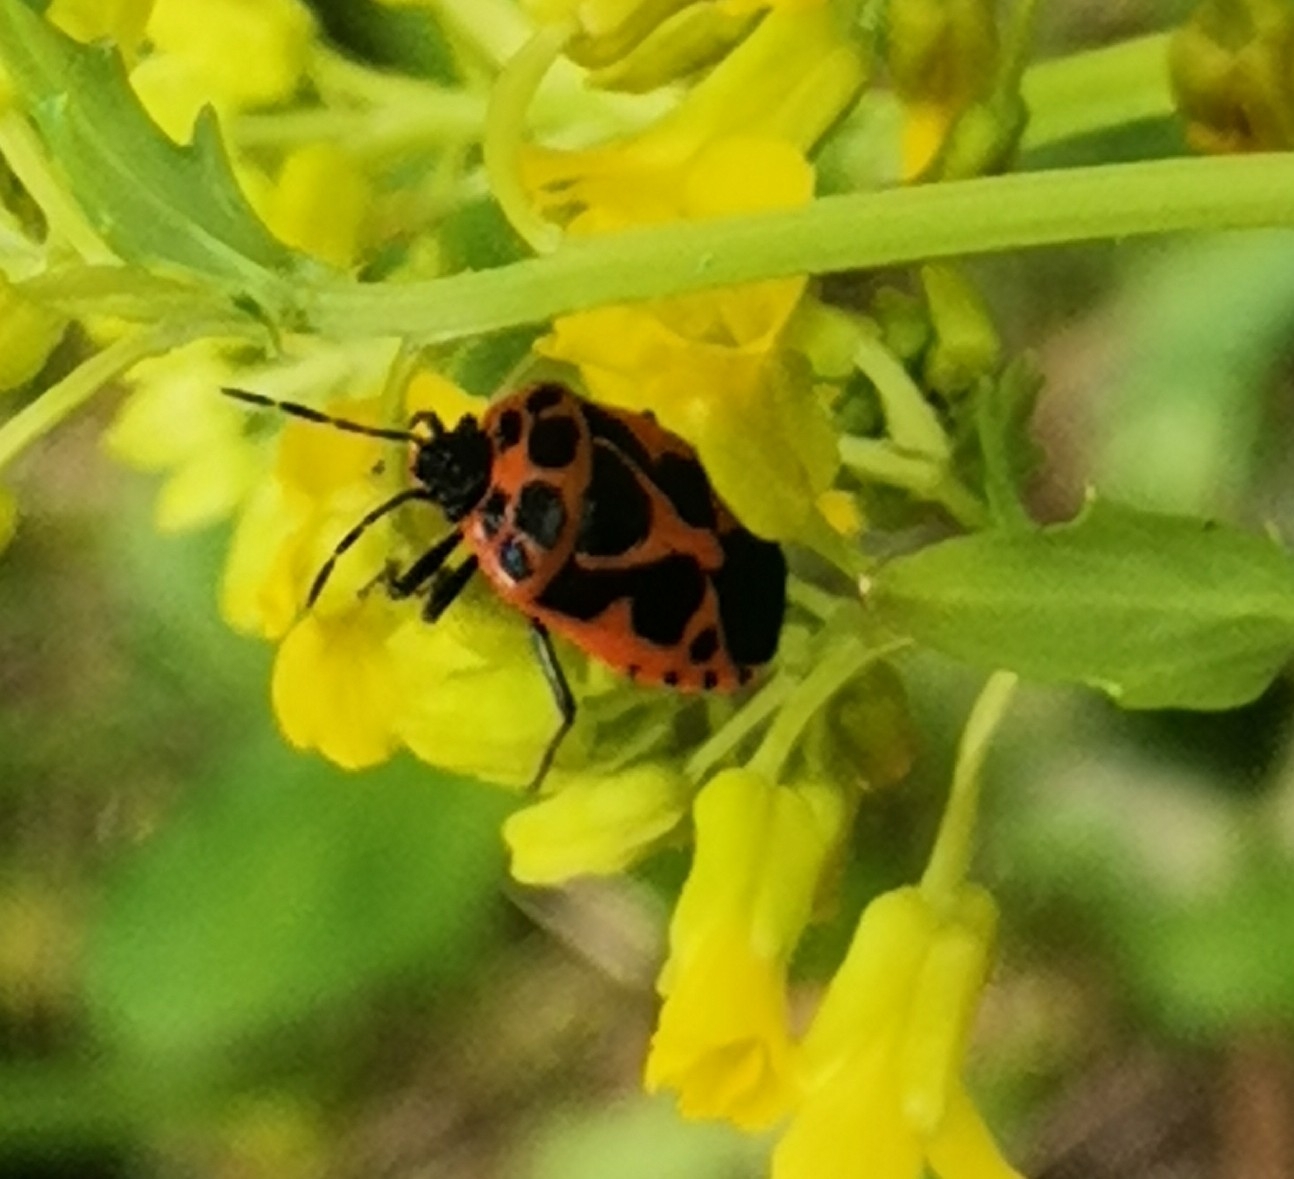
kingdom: Animalia
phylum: Arthropoda
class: Insecta
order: Hemiptera
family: Pentatomidae
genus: Eurydema
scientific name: Eurydema dominulus
